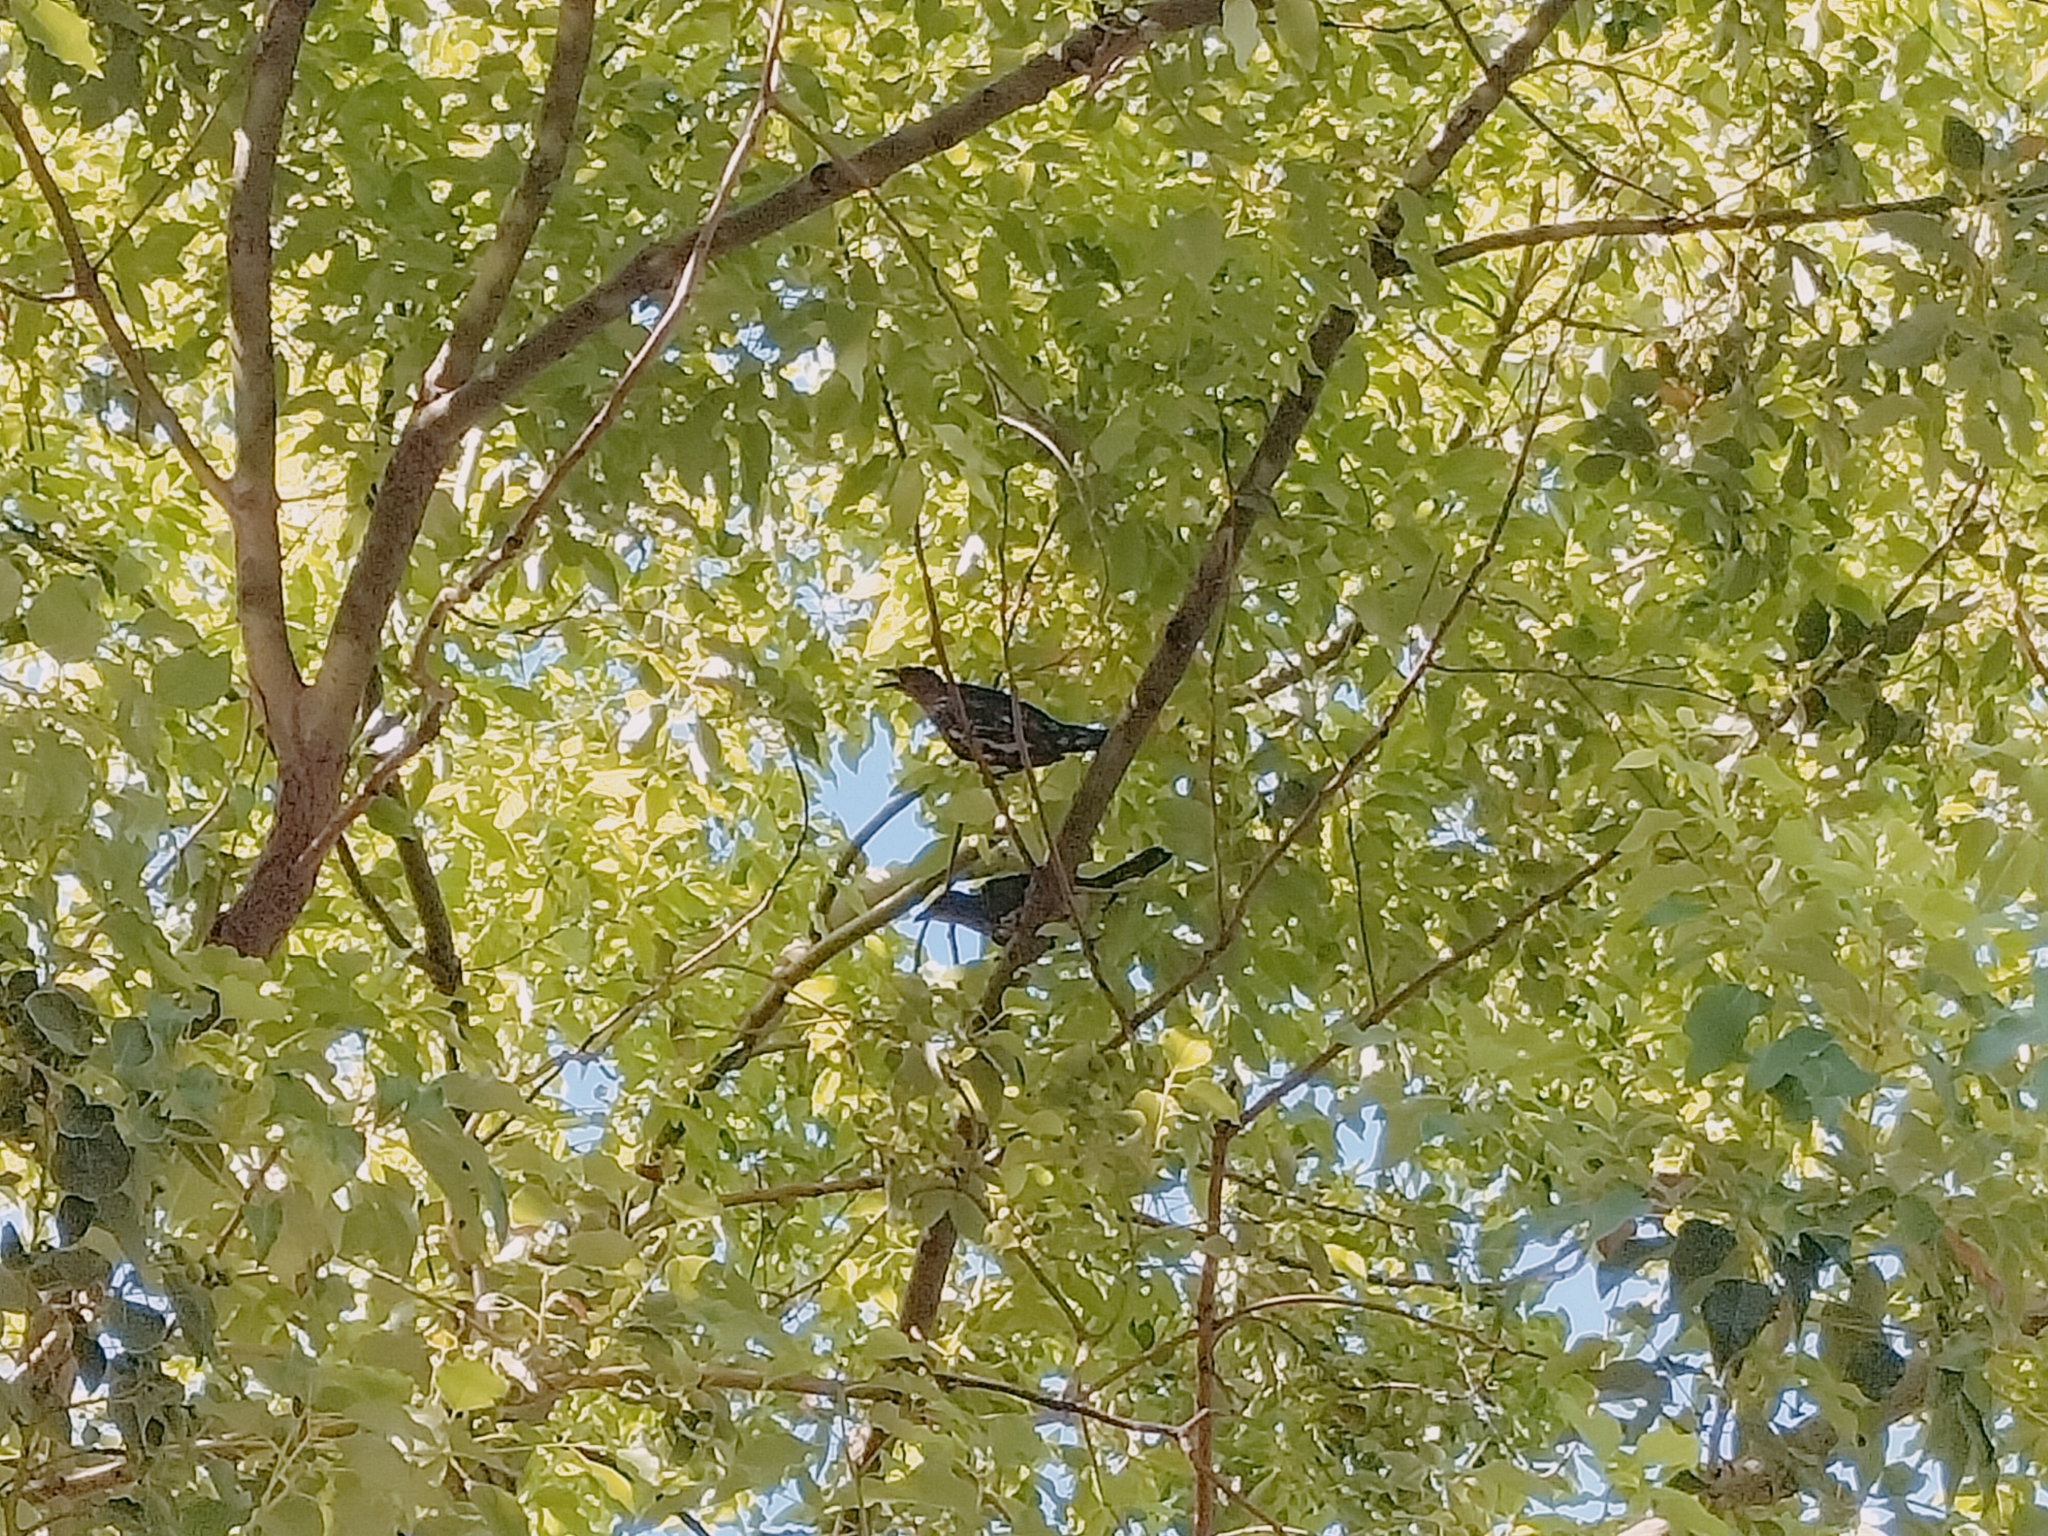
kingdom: Animalia
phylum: Chordata
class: Aves
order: Passeriformes
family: Sturnidae
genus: Aplonis
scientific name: Aplonis panayensis
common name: Asian glossy starling
